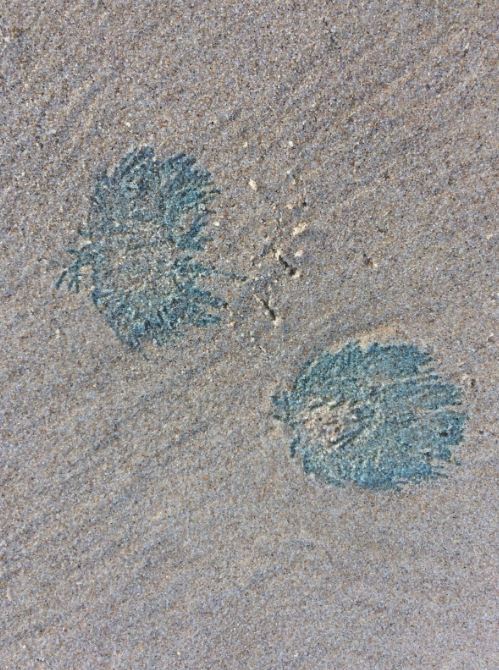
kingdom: Animalia
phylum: Cnidaria
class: Hydrozoa
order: Anthoathecata
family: Porpitidae
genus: Porpita
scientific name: Porpita porpita
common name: Blue button
